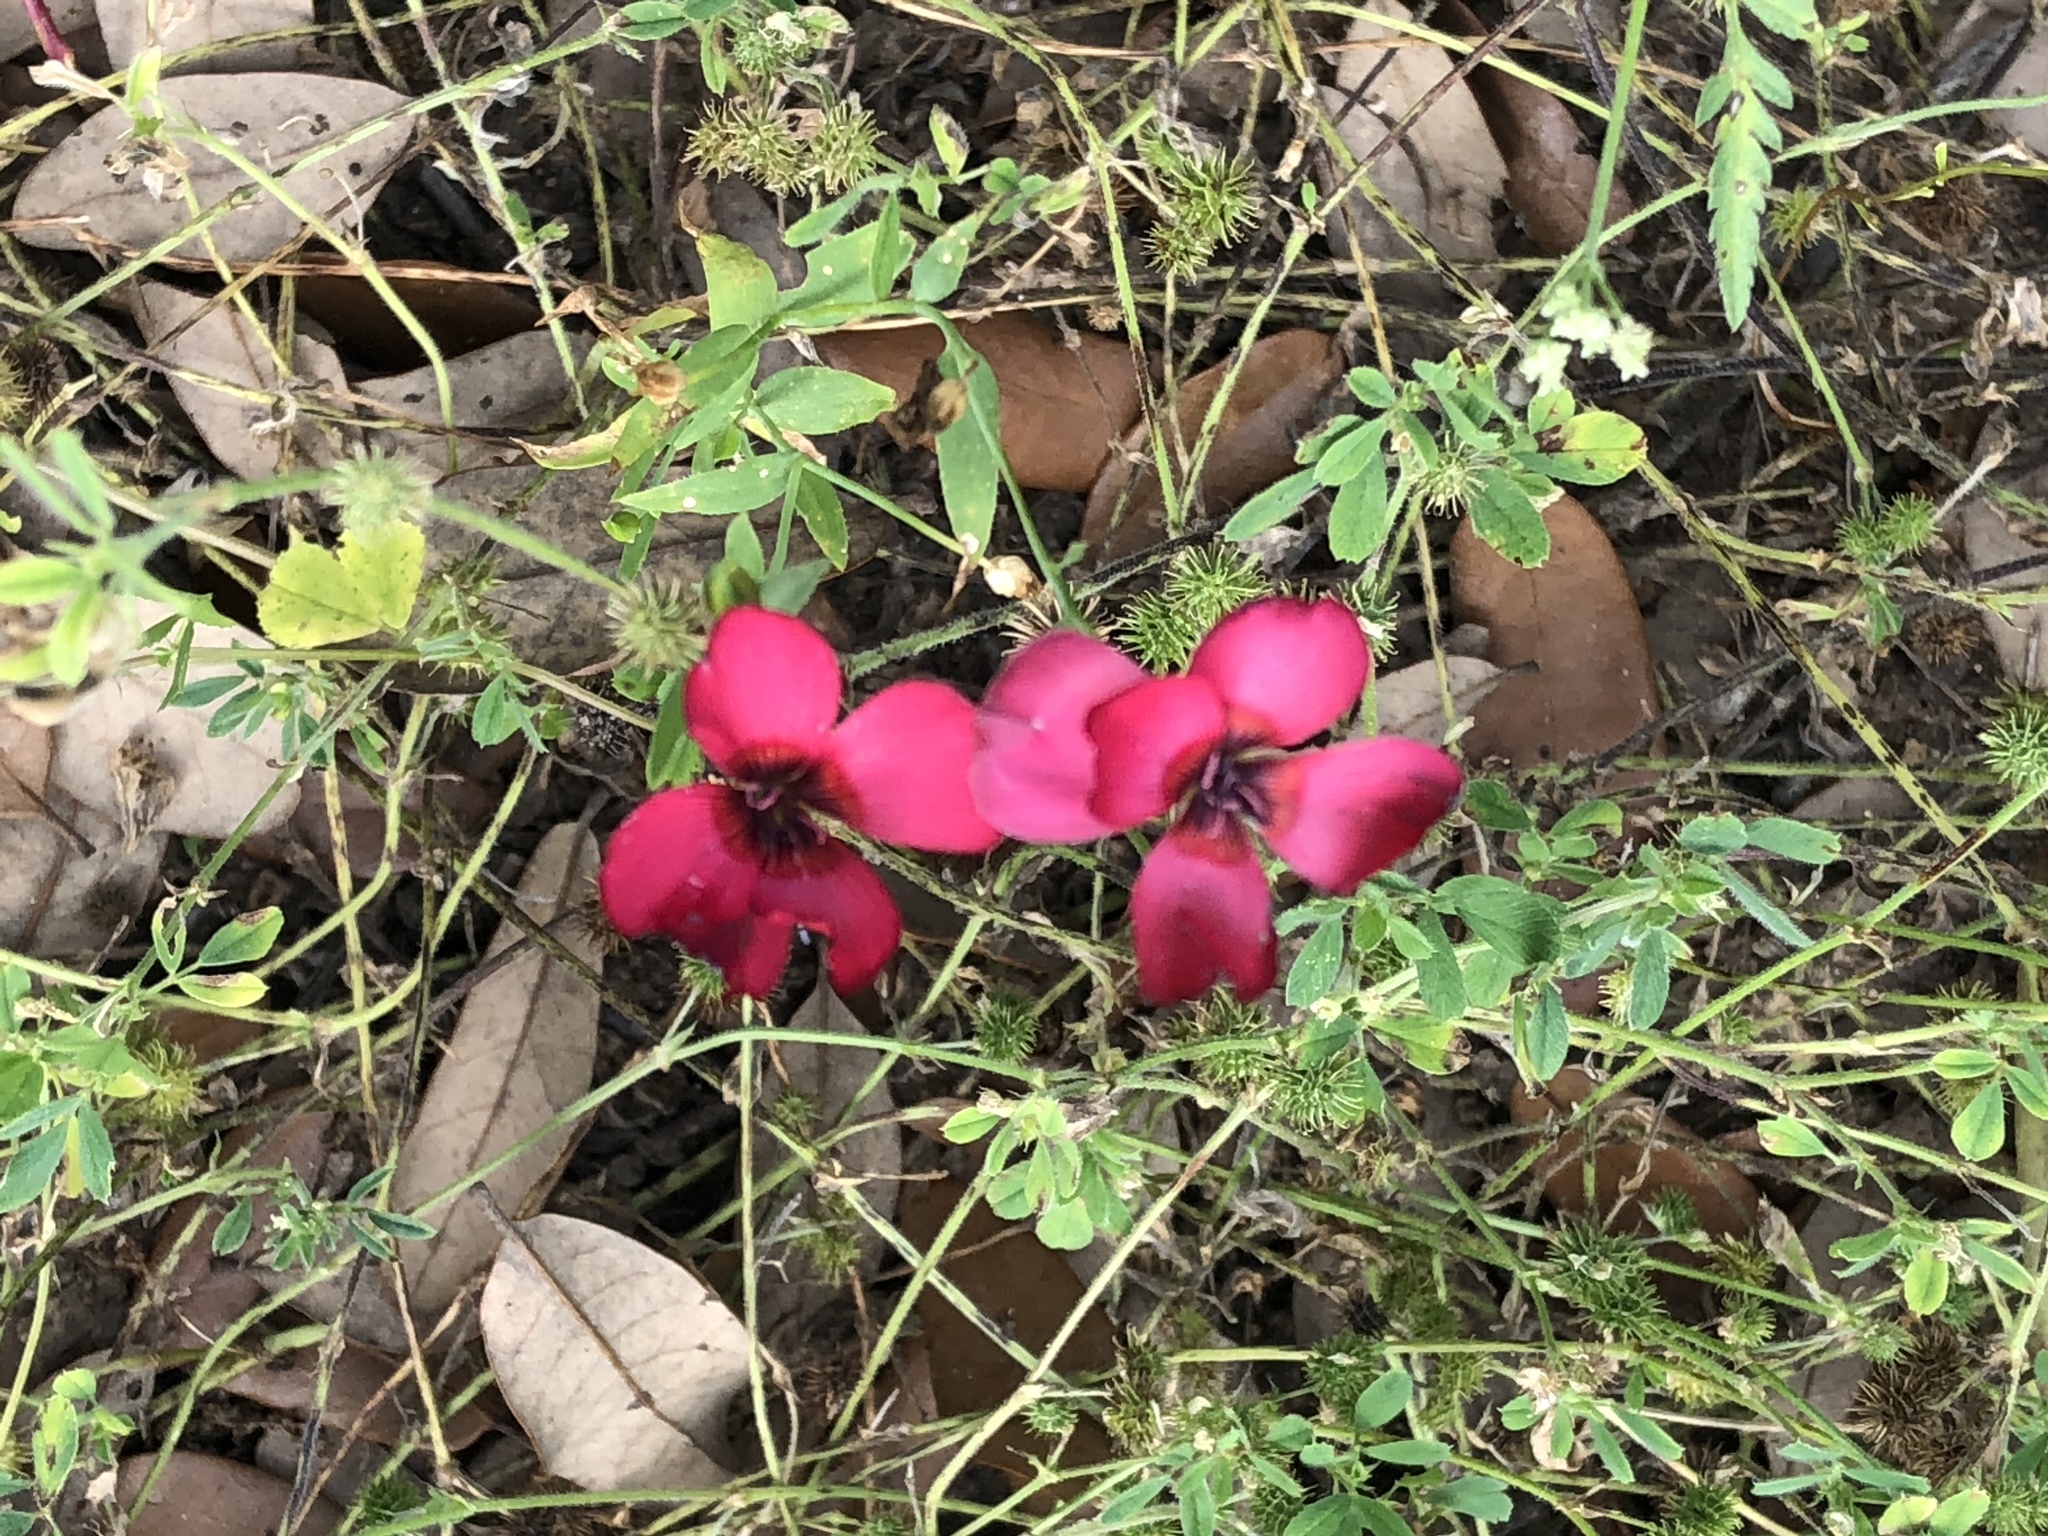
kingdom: Plantae
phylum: Tracheophyta
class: Magnoliopsida
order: Malpighiales
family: Linaceae
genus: Linum
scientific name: Linum grandiflorum
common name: Crimson flax
